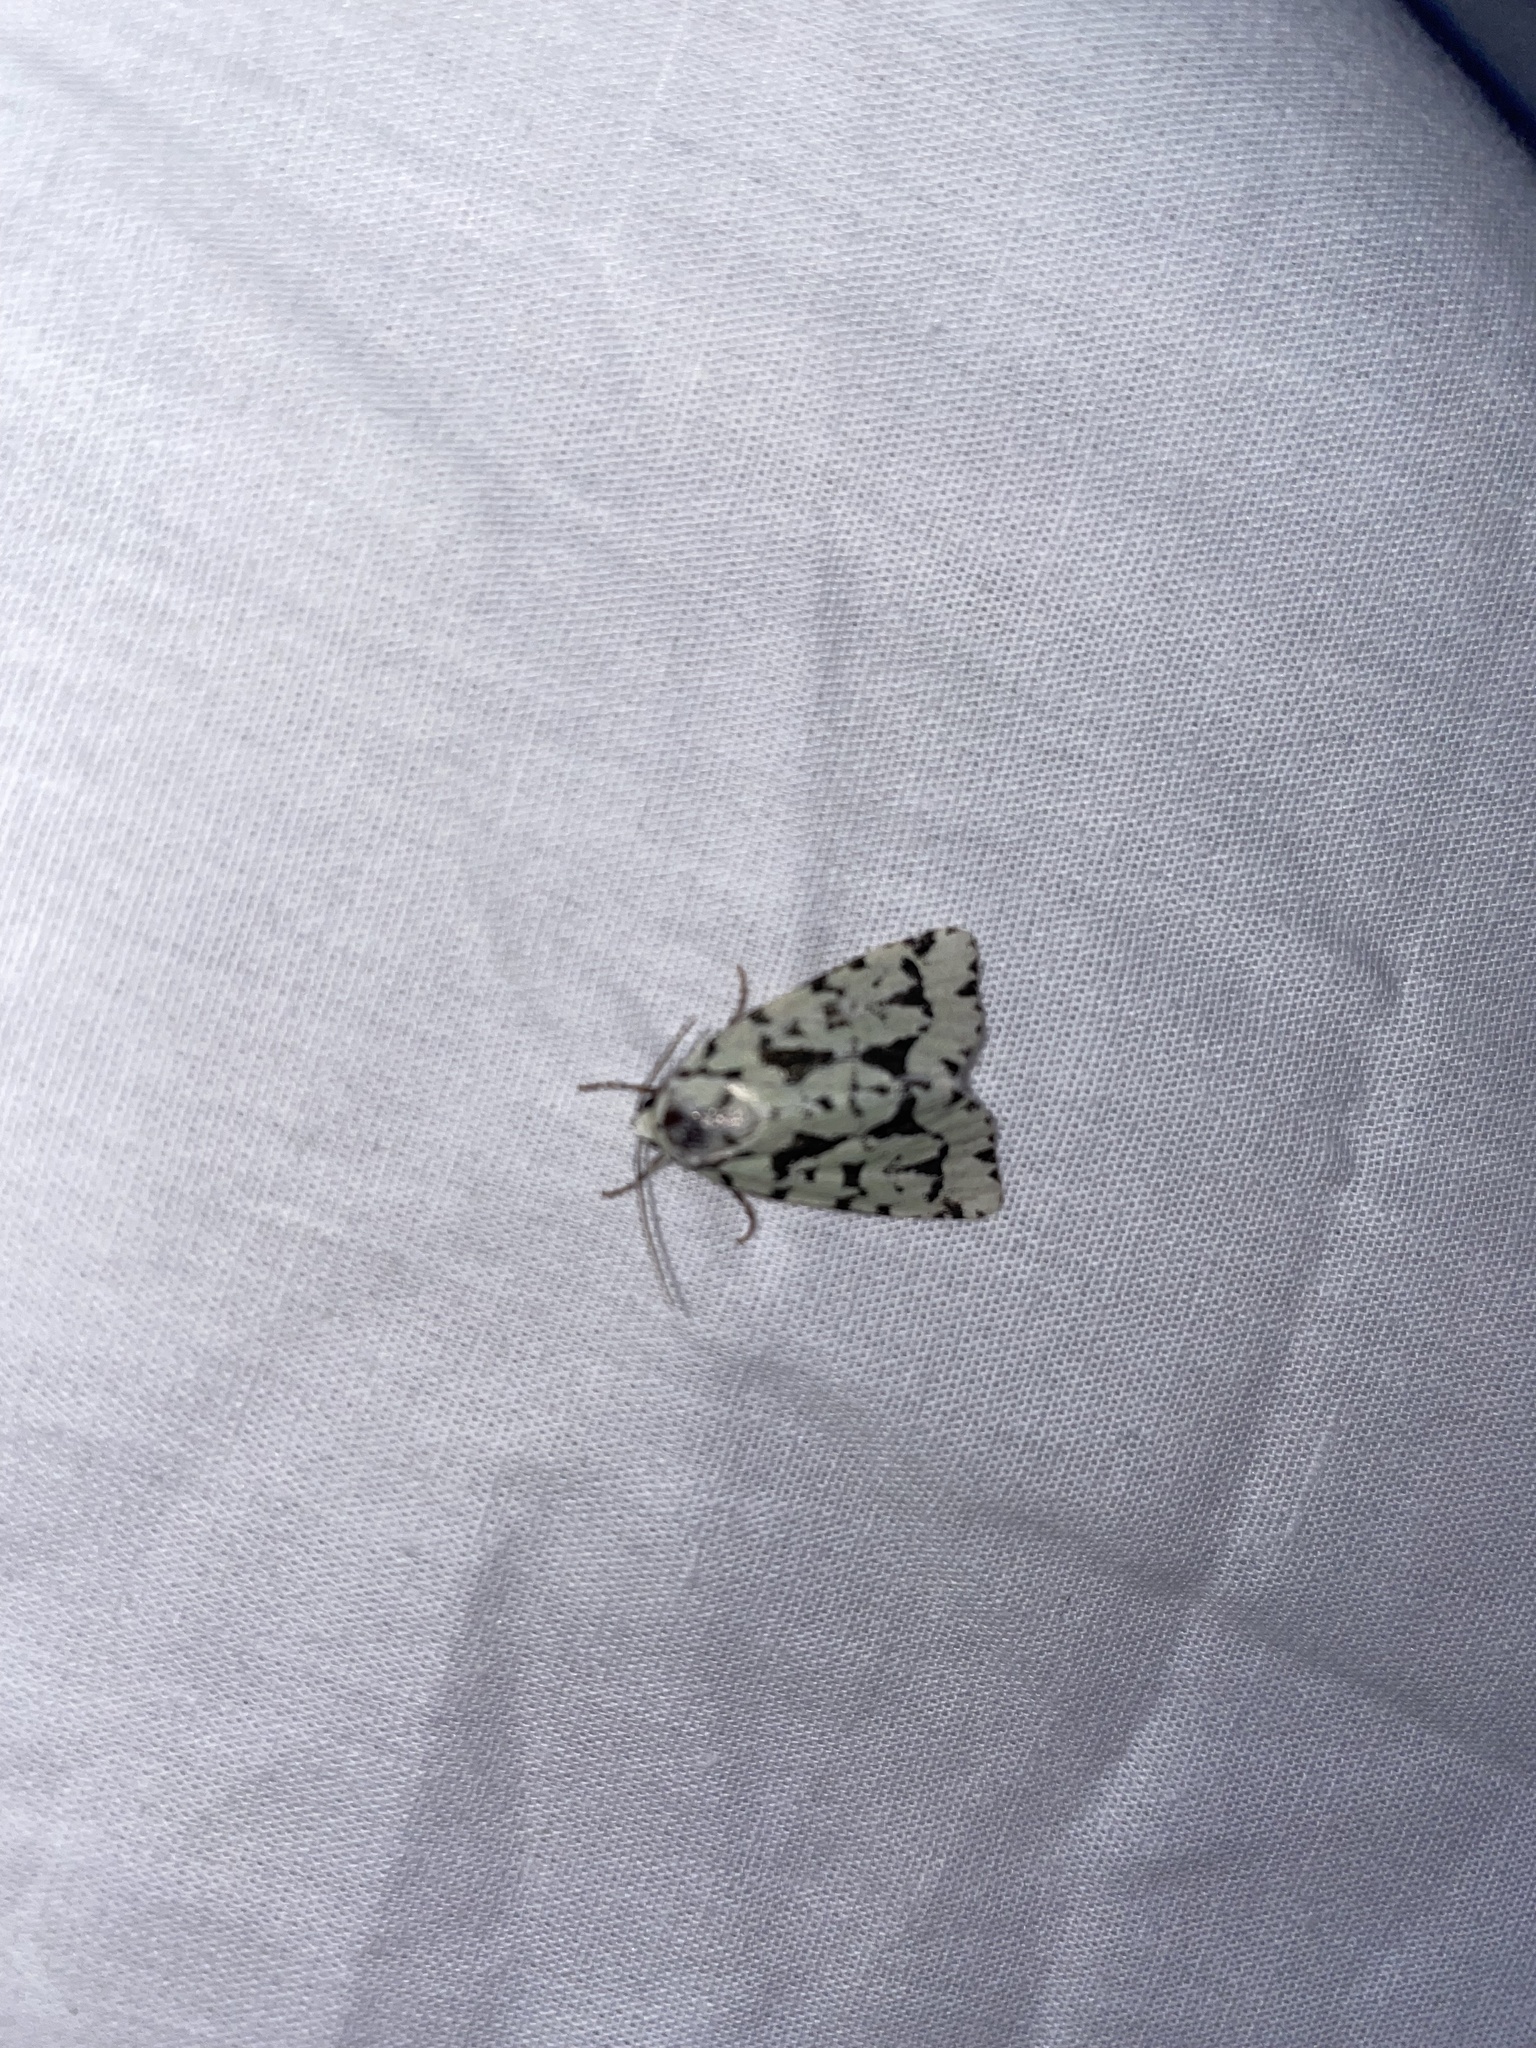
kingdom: Animalia
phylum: Arthropoda
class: Insecta
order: Lepidoptera
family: Noctuidae
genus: Acronicta
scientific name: Acronicta fallax
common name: Green marvel
